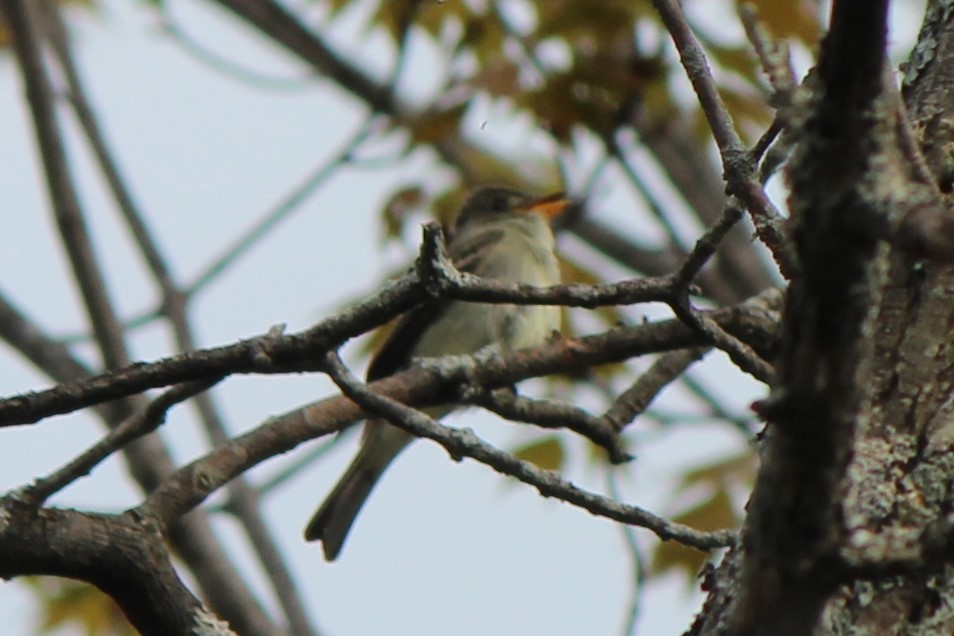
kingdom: Animalia
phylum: Chordata
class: Aves
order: Passeriformes
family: Tyrannidae
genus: Contopus
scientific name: Contopus virens
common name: Eastern wood-pewee
